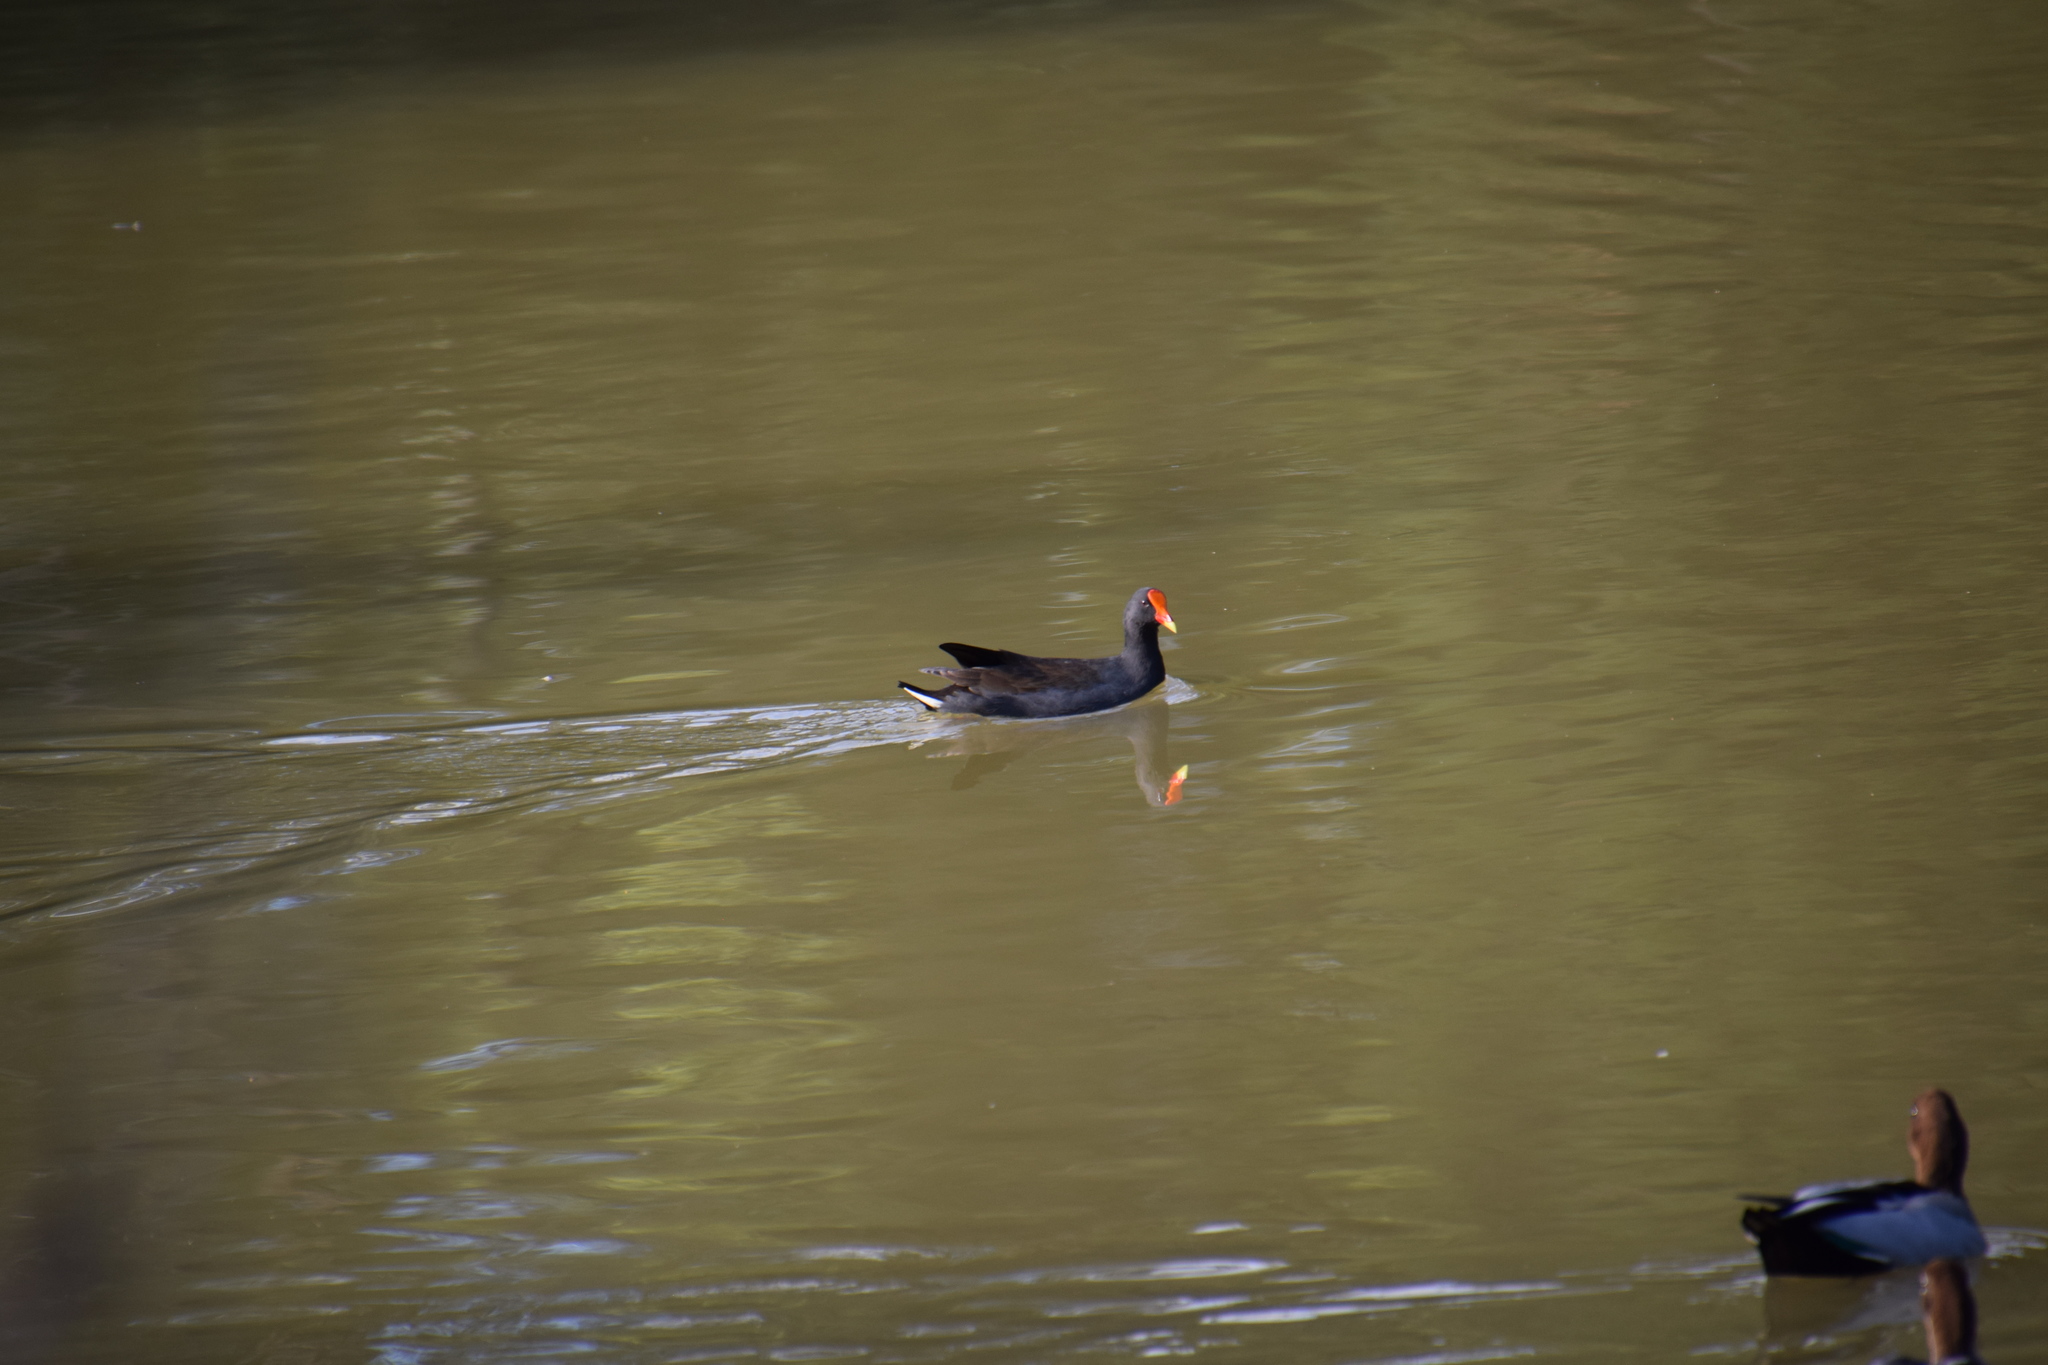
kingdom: Animalia
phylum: Chordata
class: Aves
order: Gruiformes
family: Rallidae
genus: Gallinula
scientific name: Gallinula tenebrosa
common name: Dusky moorhen
